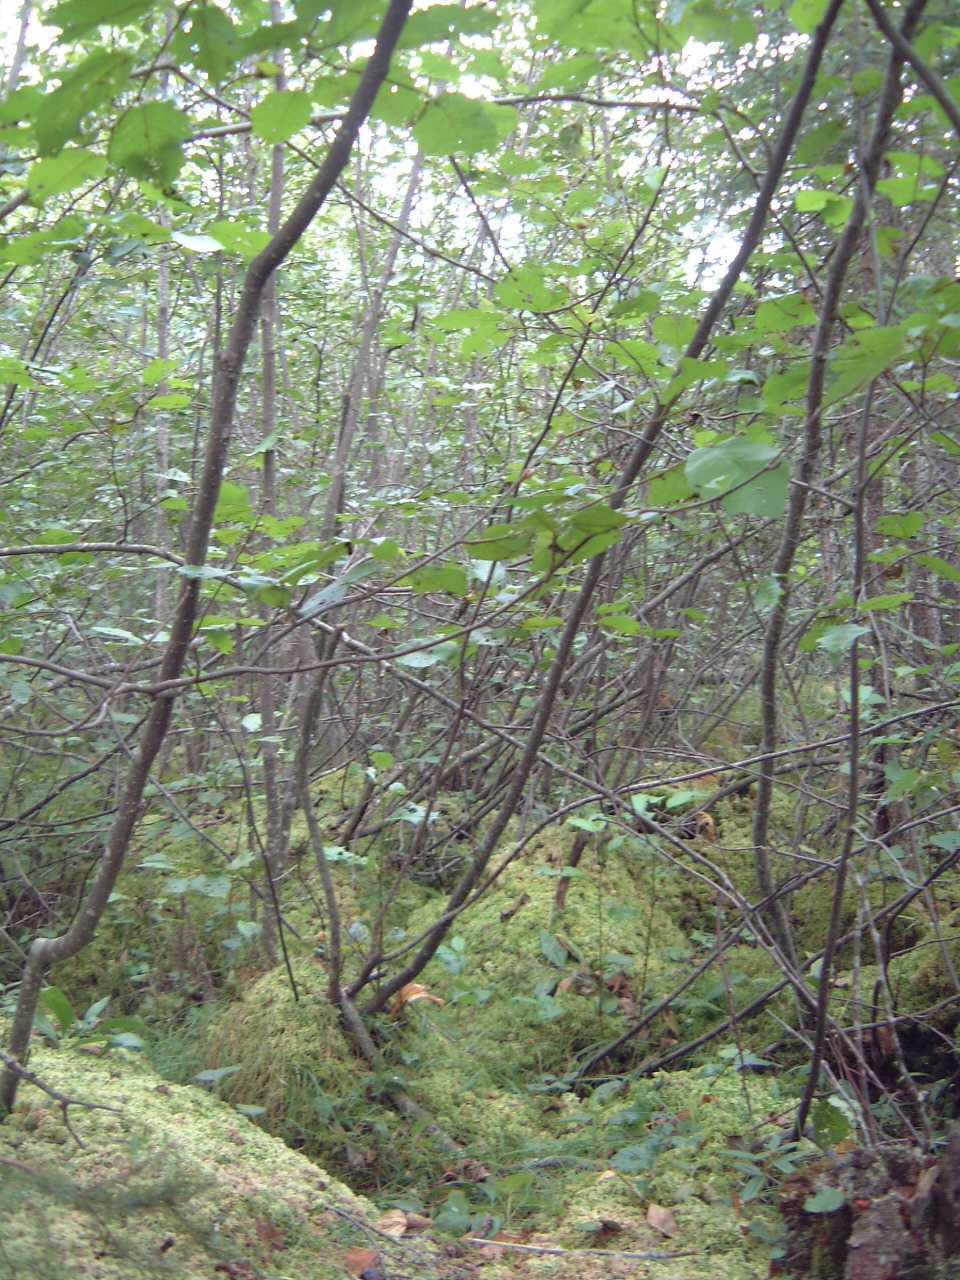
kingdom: Plantae
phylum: Tracheophyta
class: Magnoliopsida
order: Fagales
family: Betulaceae
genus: Alnus
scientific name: Alnus incana
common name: Grey alder
